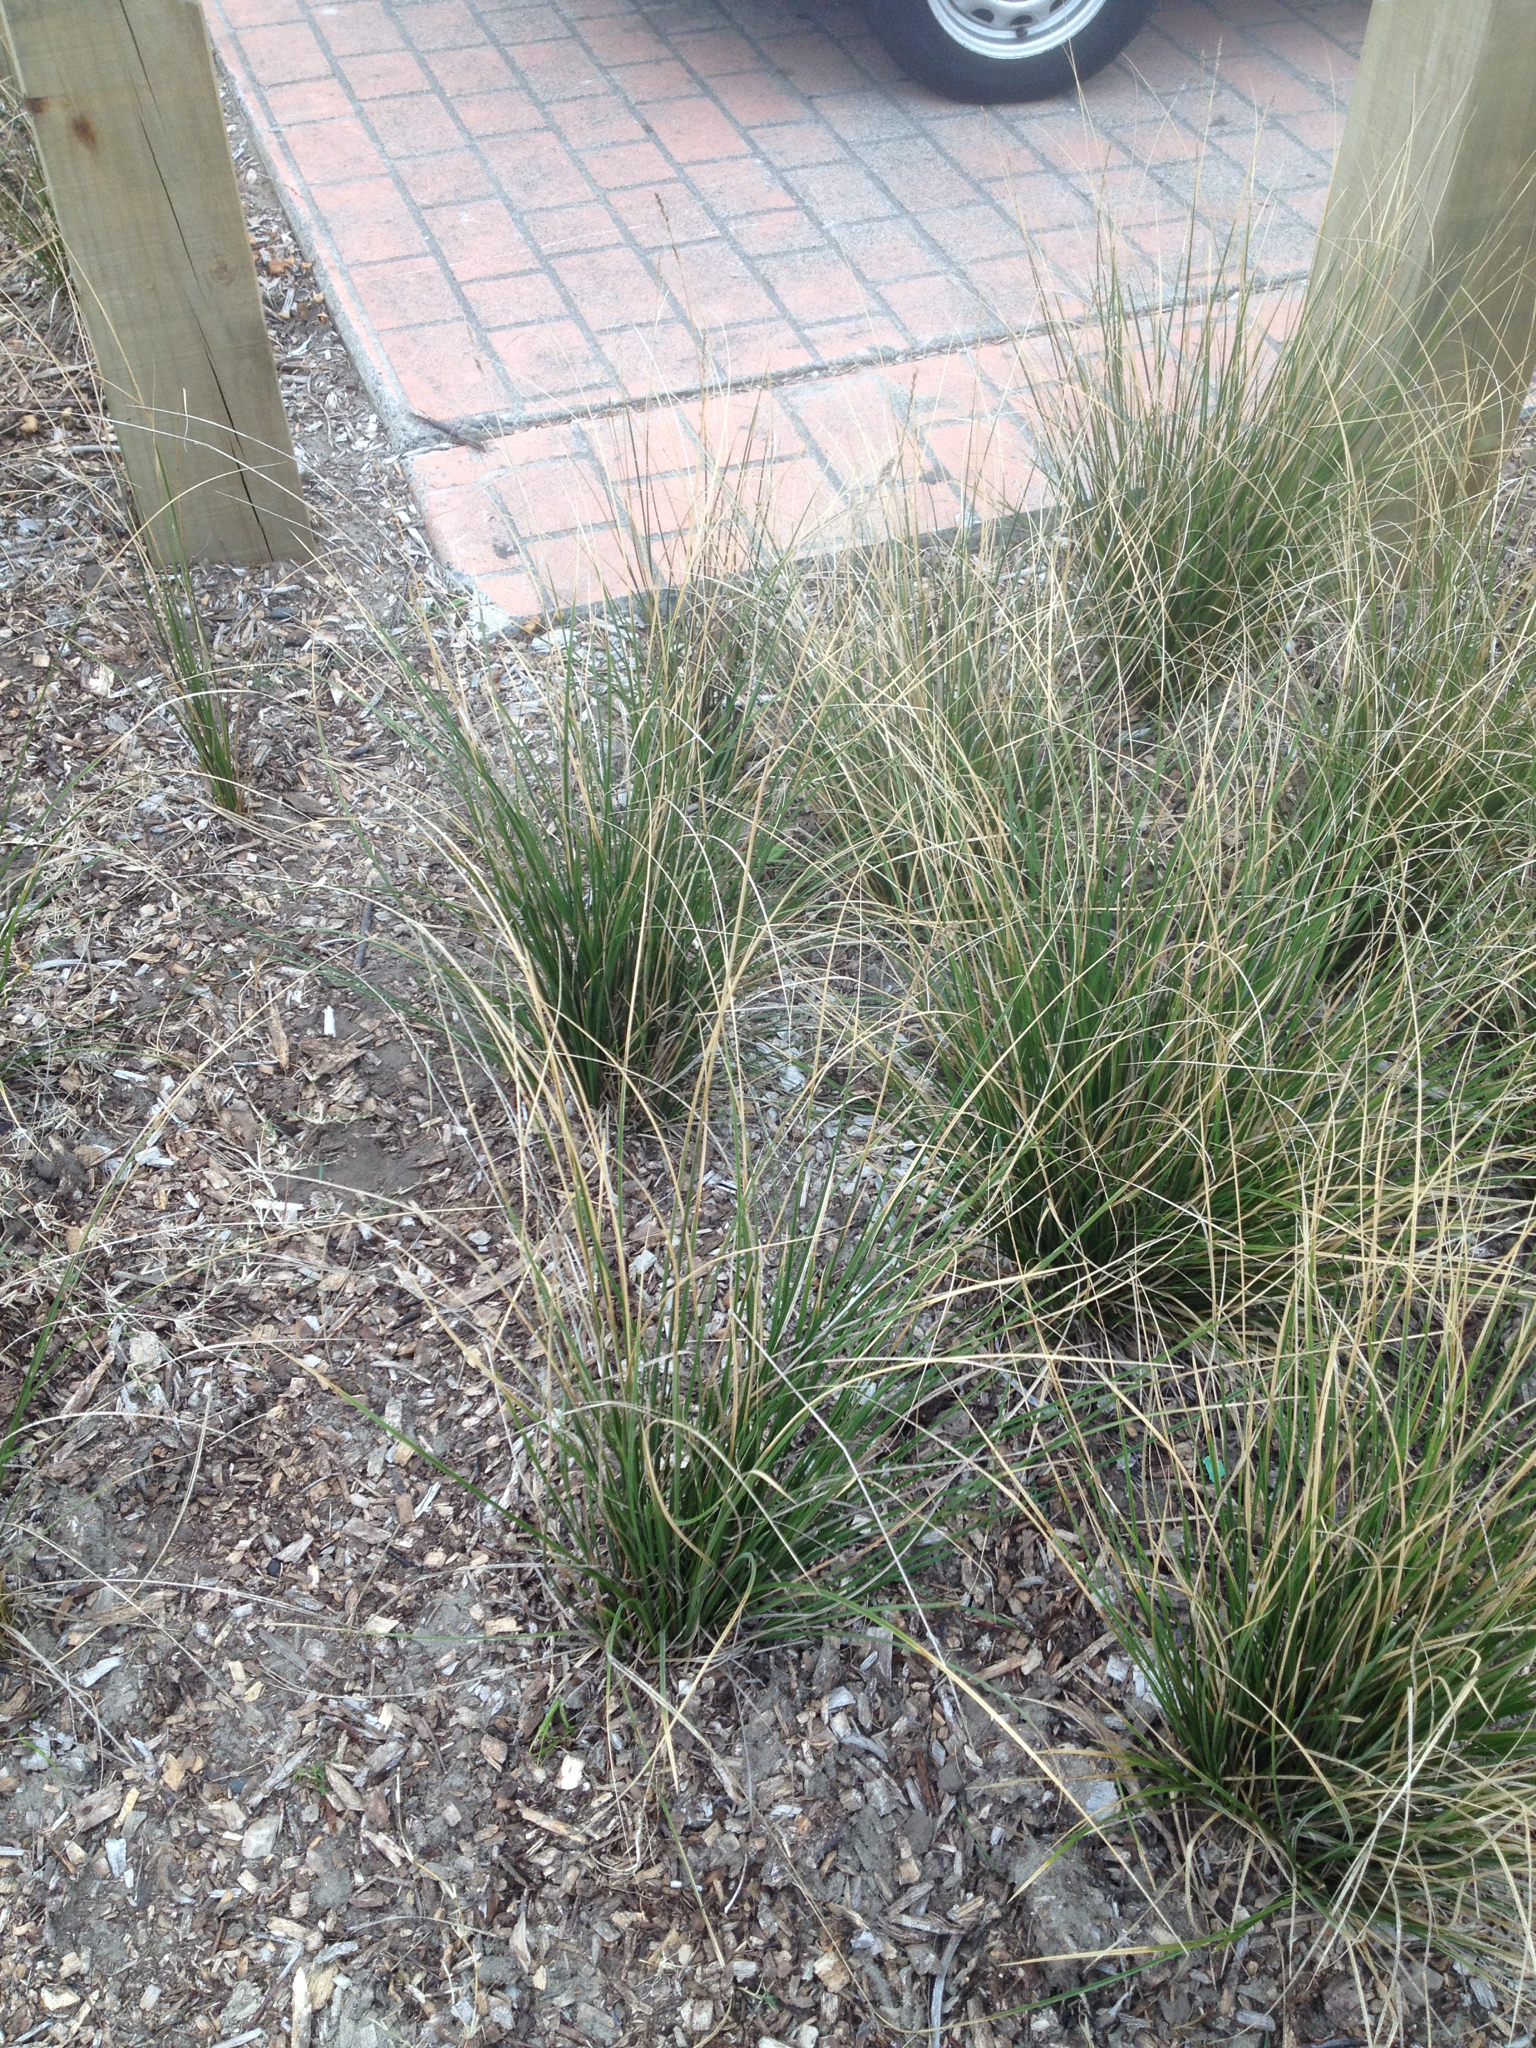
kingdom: Plantae
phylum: Tracheophyta
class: Liliopsida
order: Poales
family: Cyperaceae
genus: Carex
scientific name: Carex virgata
